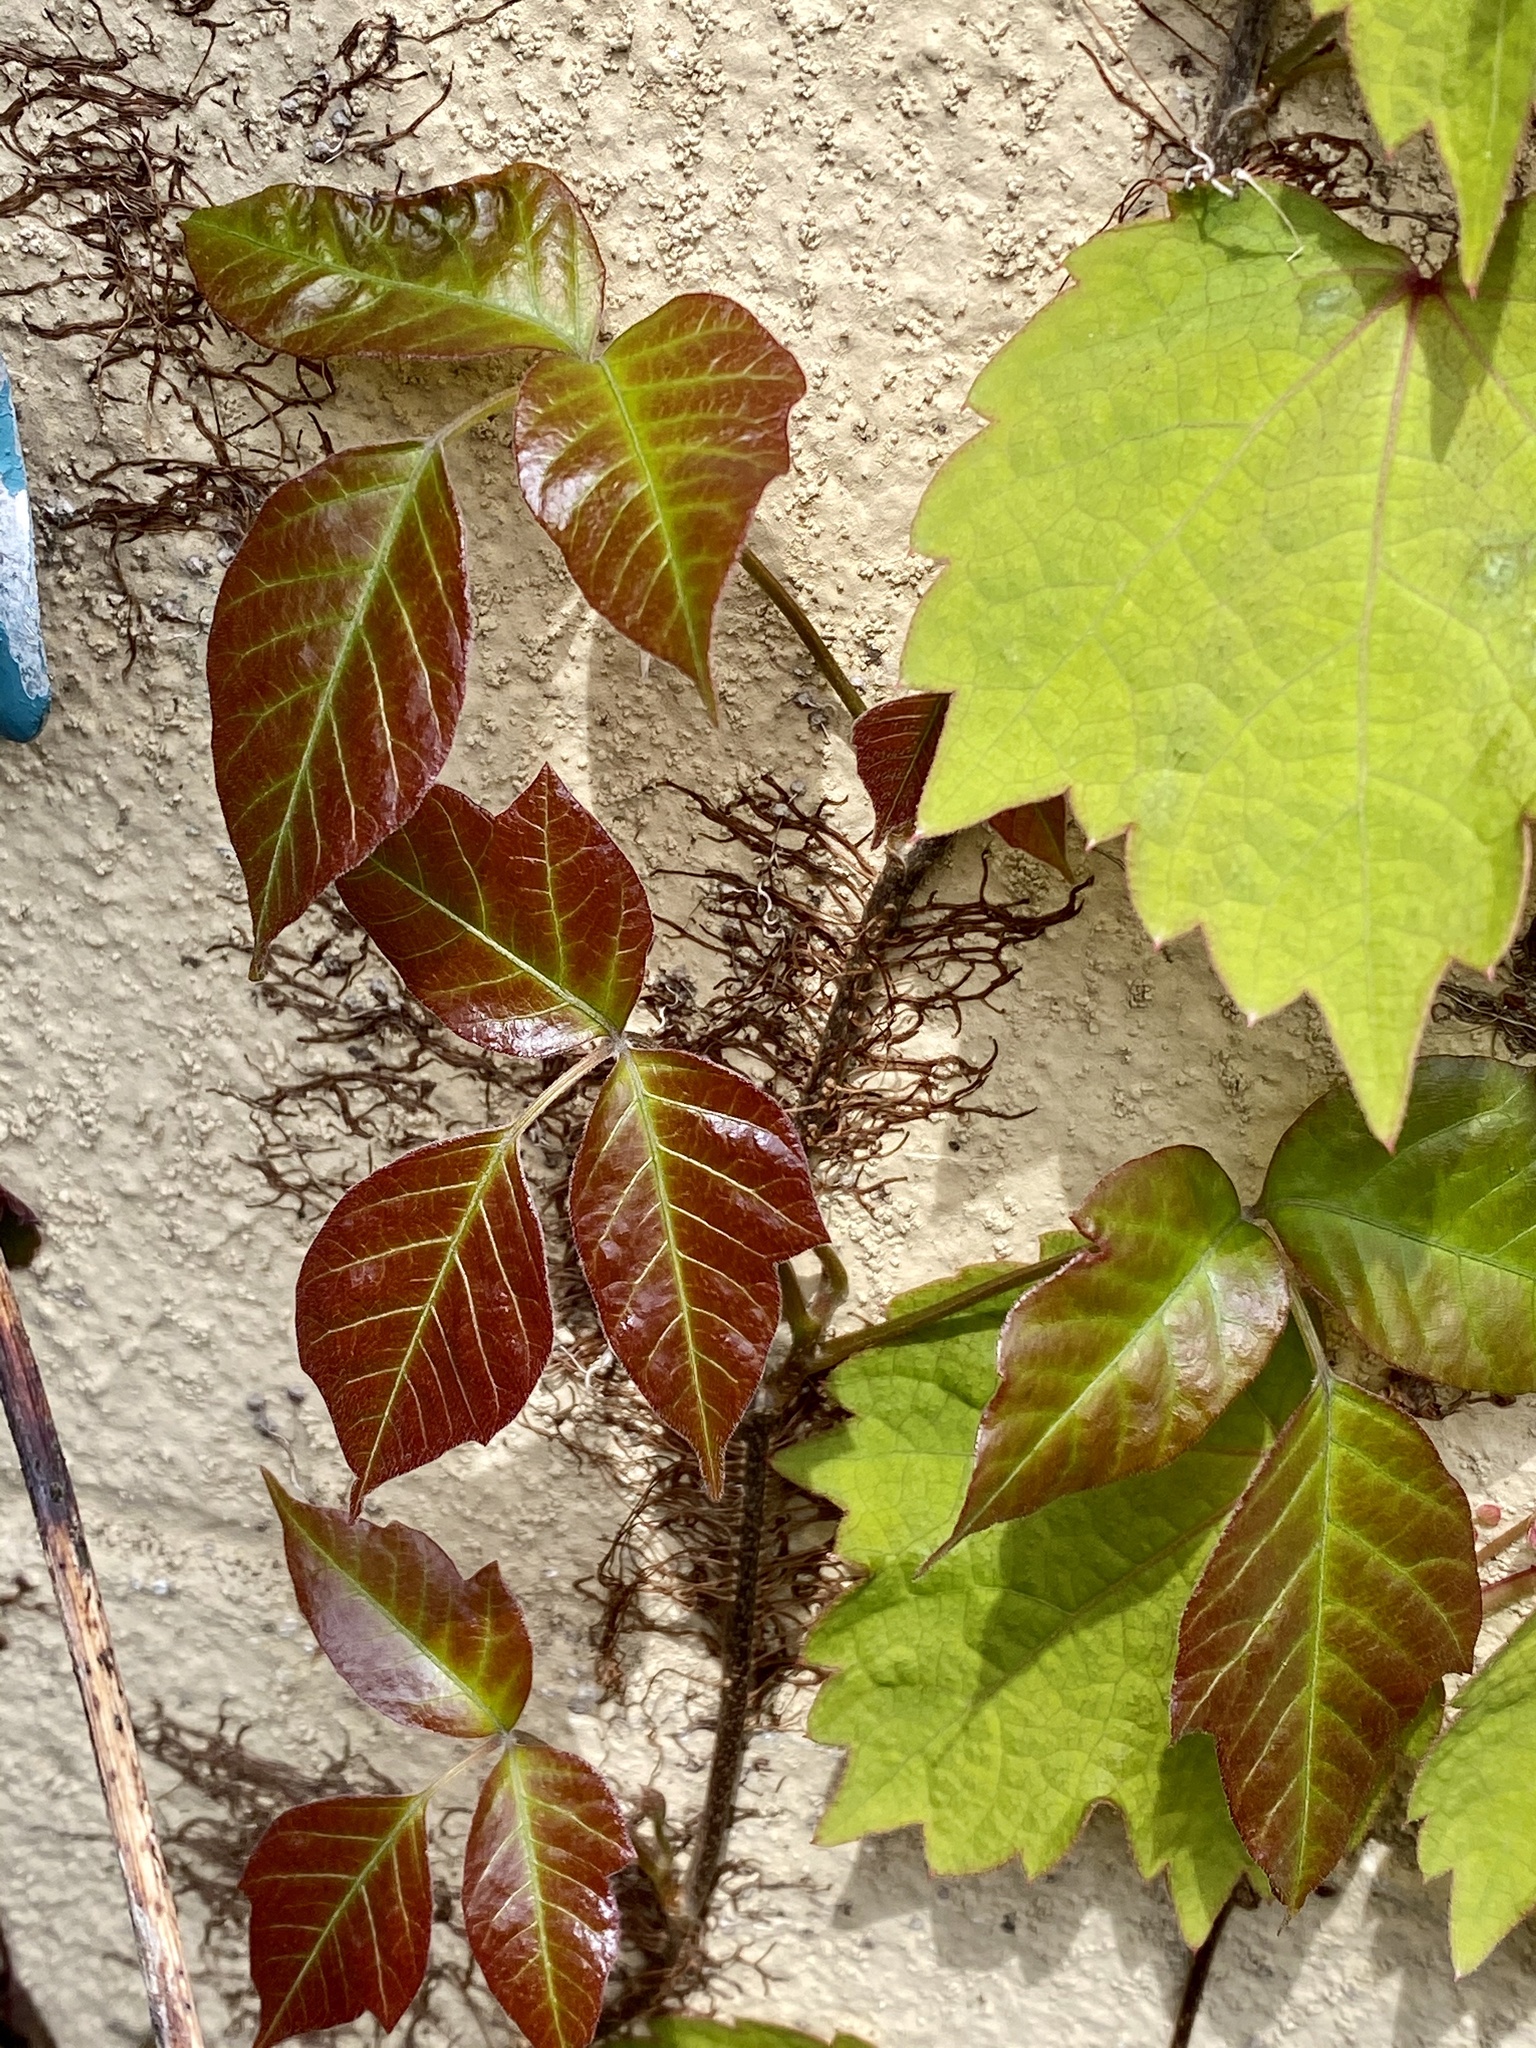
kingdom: Plantae
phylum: Tracheophyta
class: Magnoliopsida
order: Sapindales
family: Anacardiaceae
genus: Toxicodendron
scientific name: Toxicodendron radicans
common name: Poison ivy
